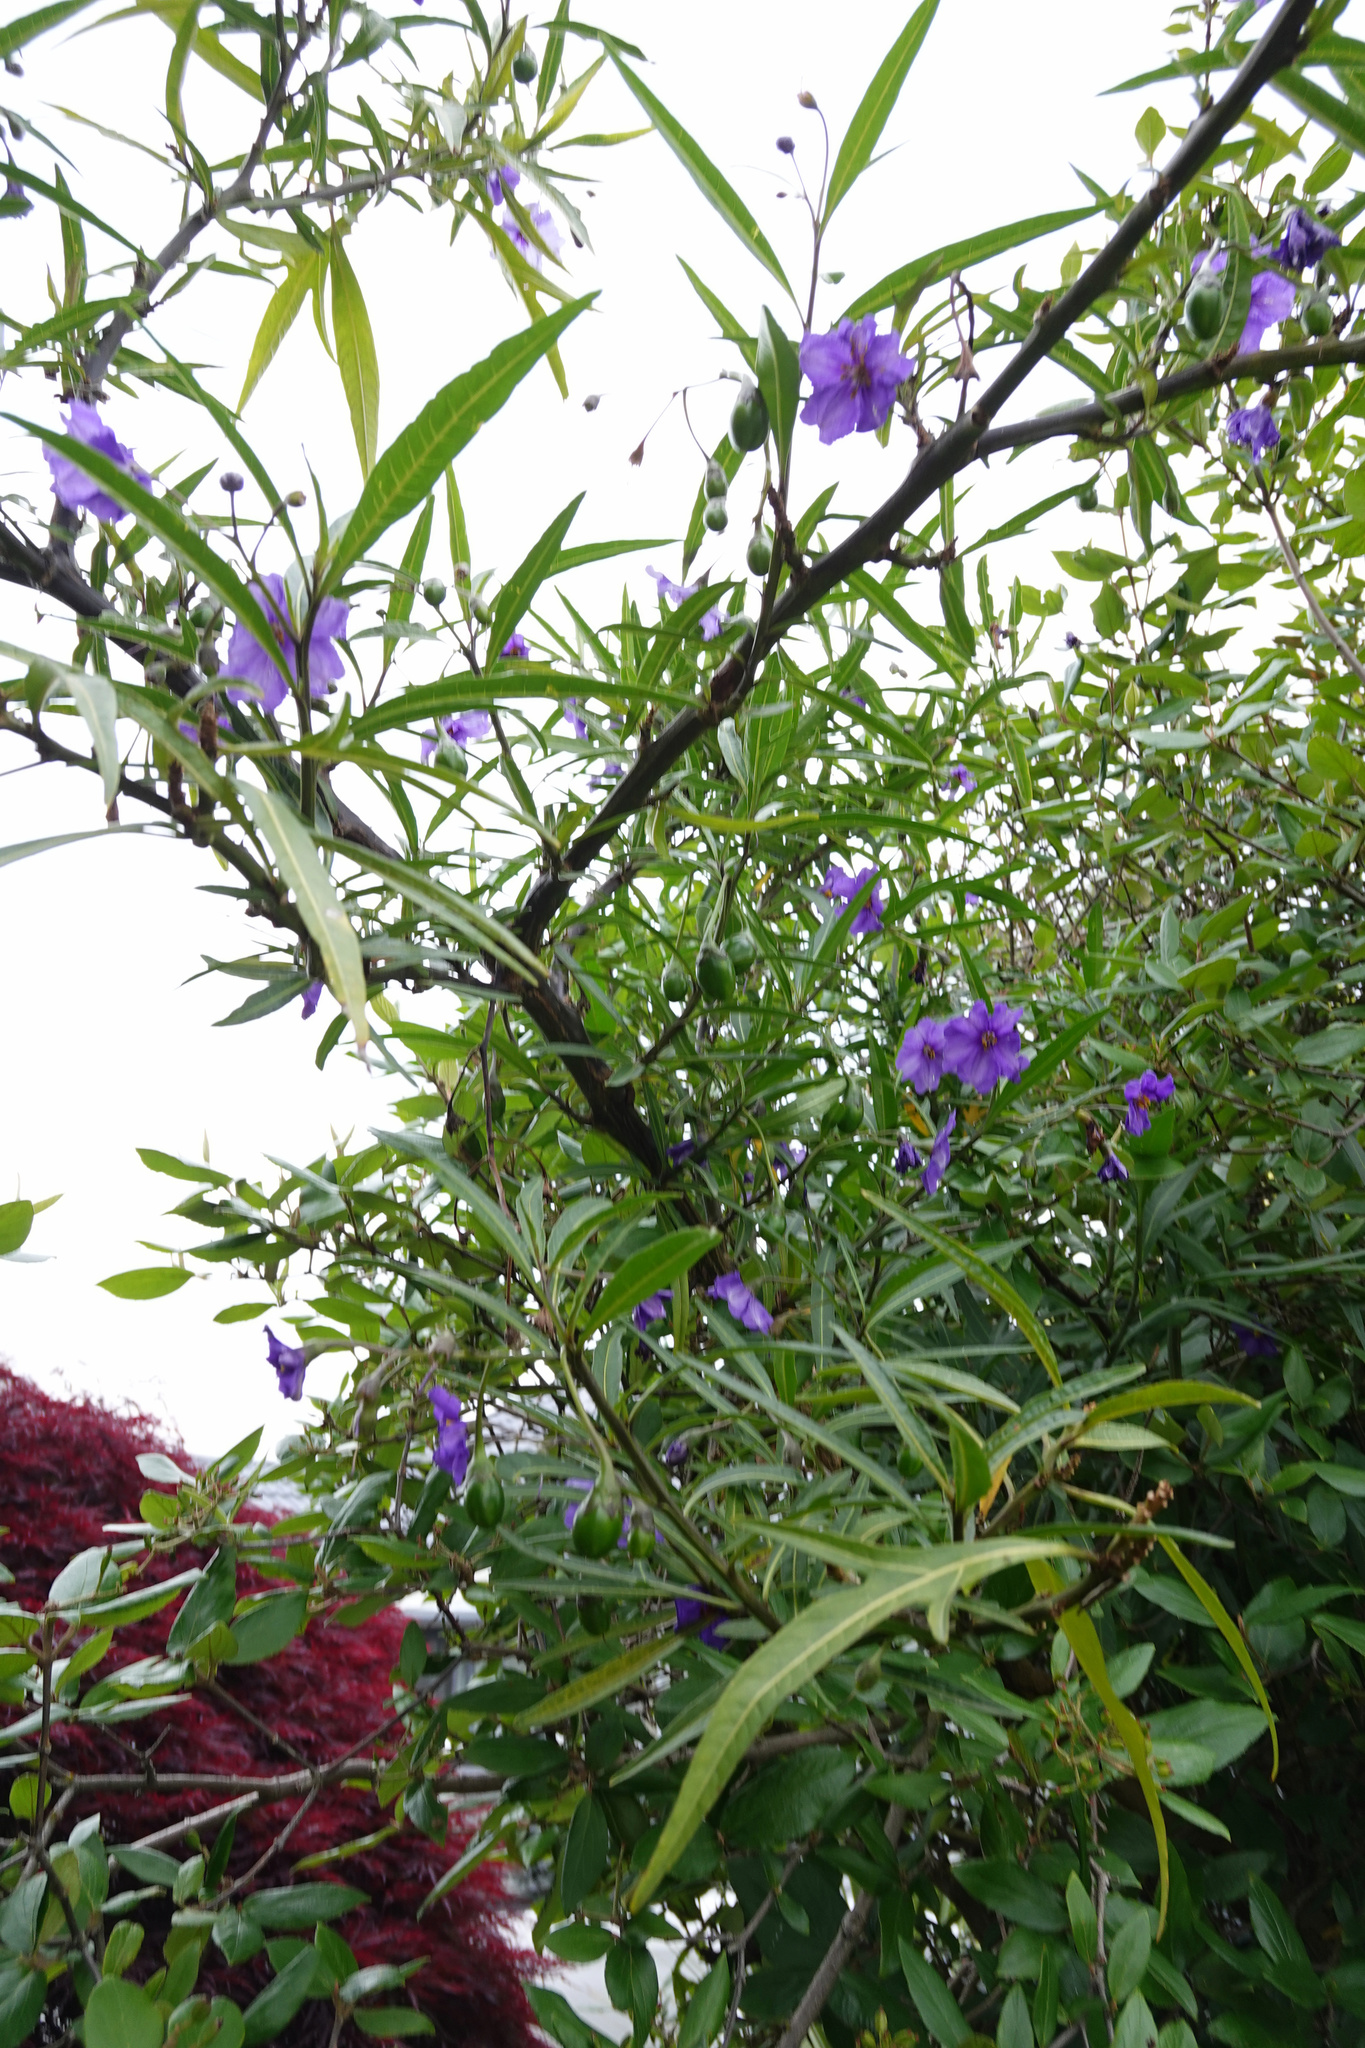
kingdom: Plantae
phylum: Tracheophyta
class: Magnoliopsida
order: Solanales
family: Solanaceae
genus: Solanum
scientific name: Solanum laciniatum
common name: Kangaroo-apple
